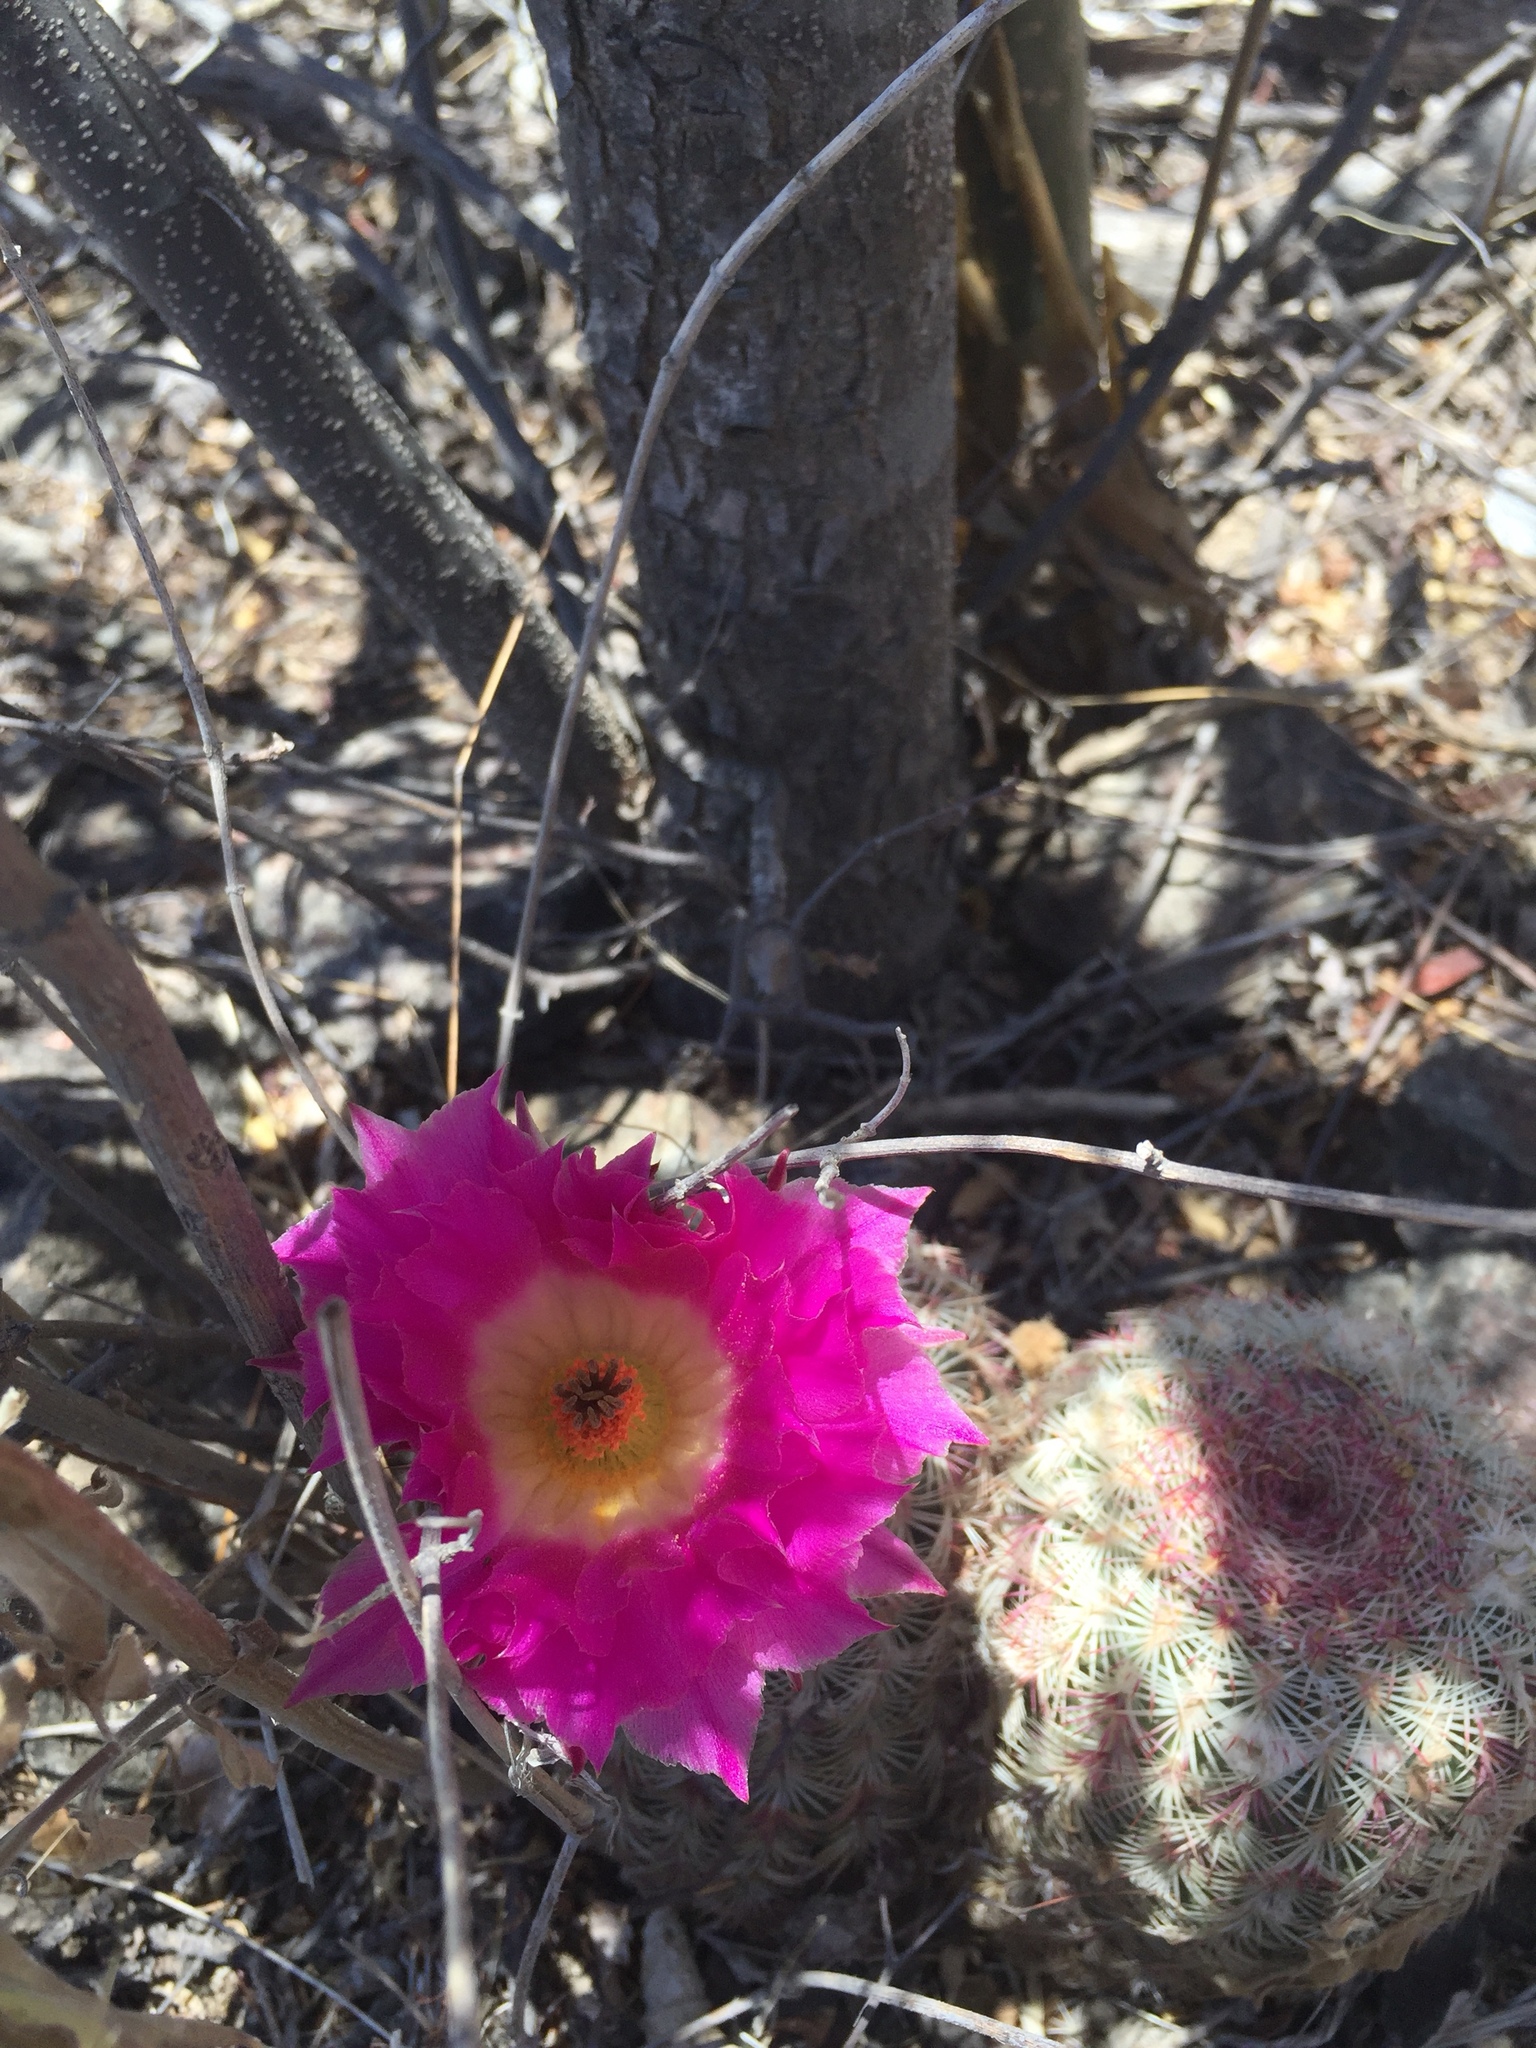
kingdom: Plantae
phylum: Tracheophyta
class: Magnoliopsida
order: Caryophyllales
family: Cactaceae
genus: Echinocereus
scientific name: Echinocereus rigidissimus
